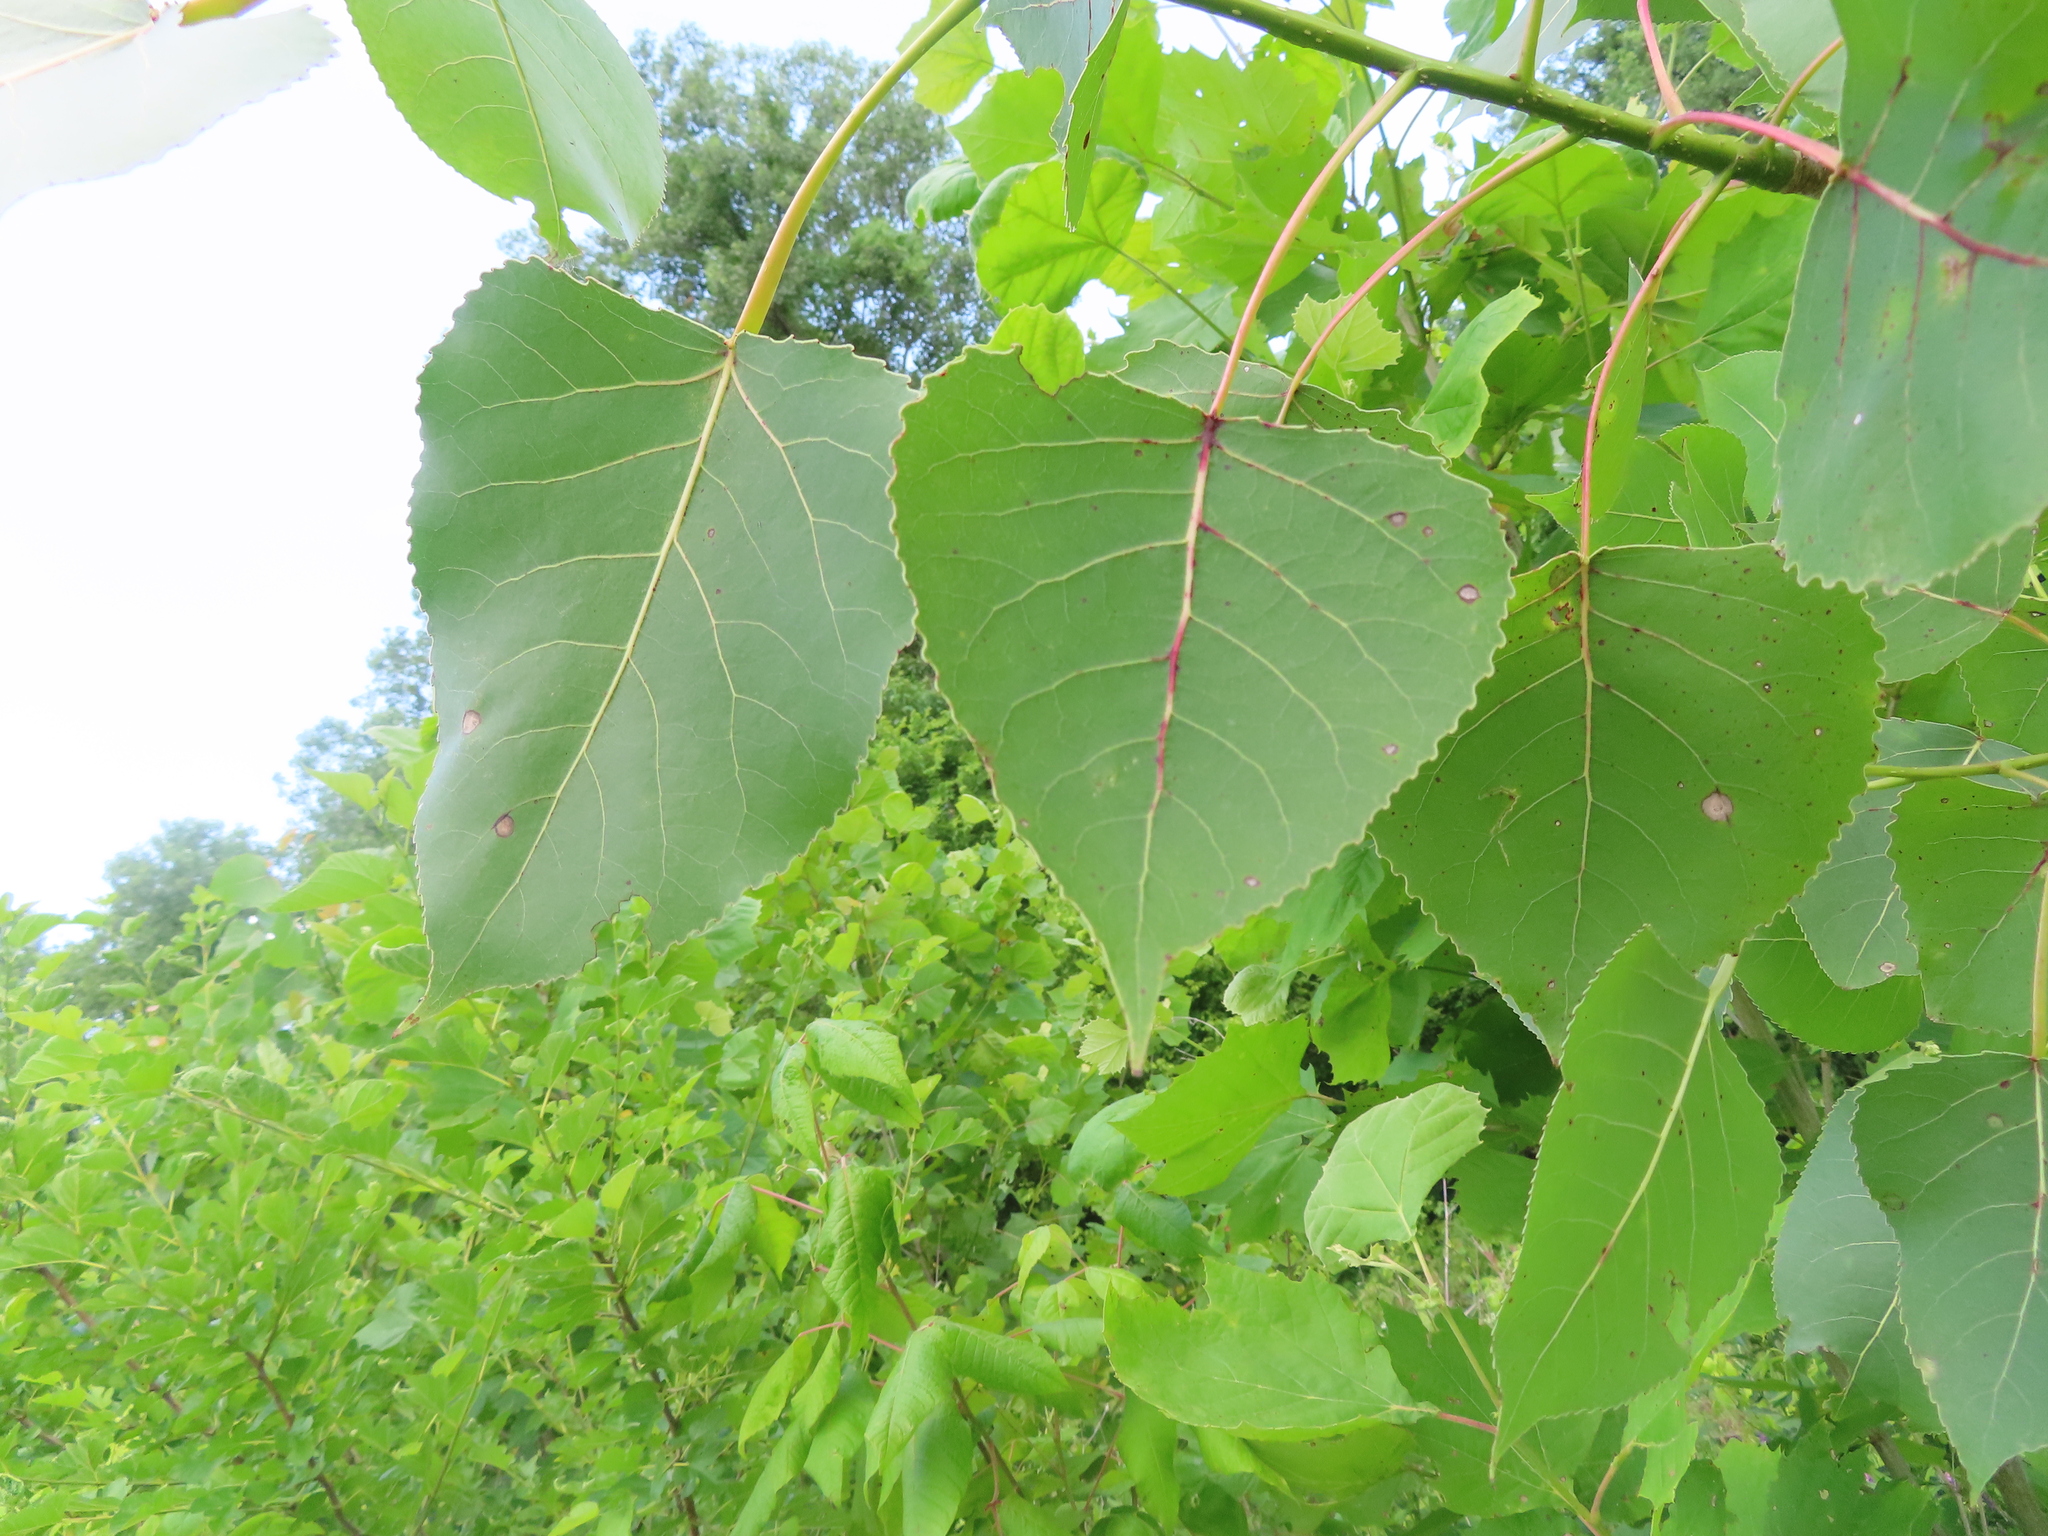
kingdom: Plantae
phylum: Tracheophyta
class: Magnoliopsida
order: Malpighiales
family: Salicaceae
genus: Populus
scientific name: Populus deltoides
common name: Eastern cottonwood
